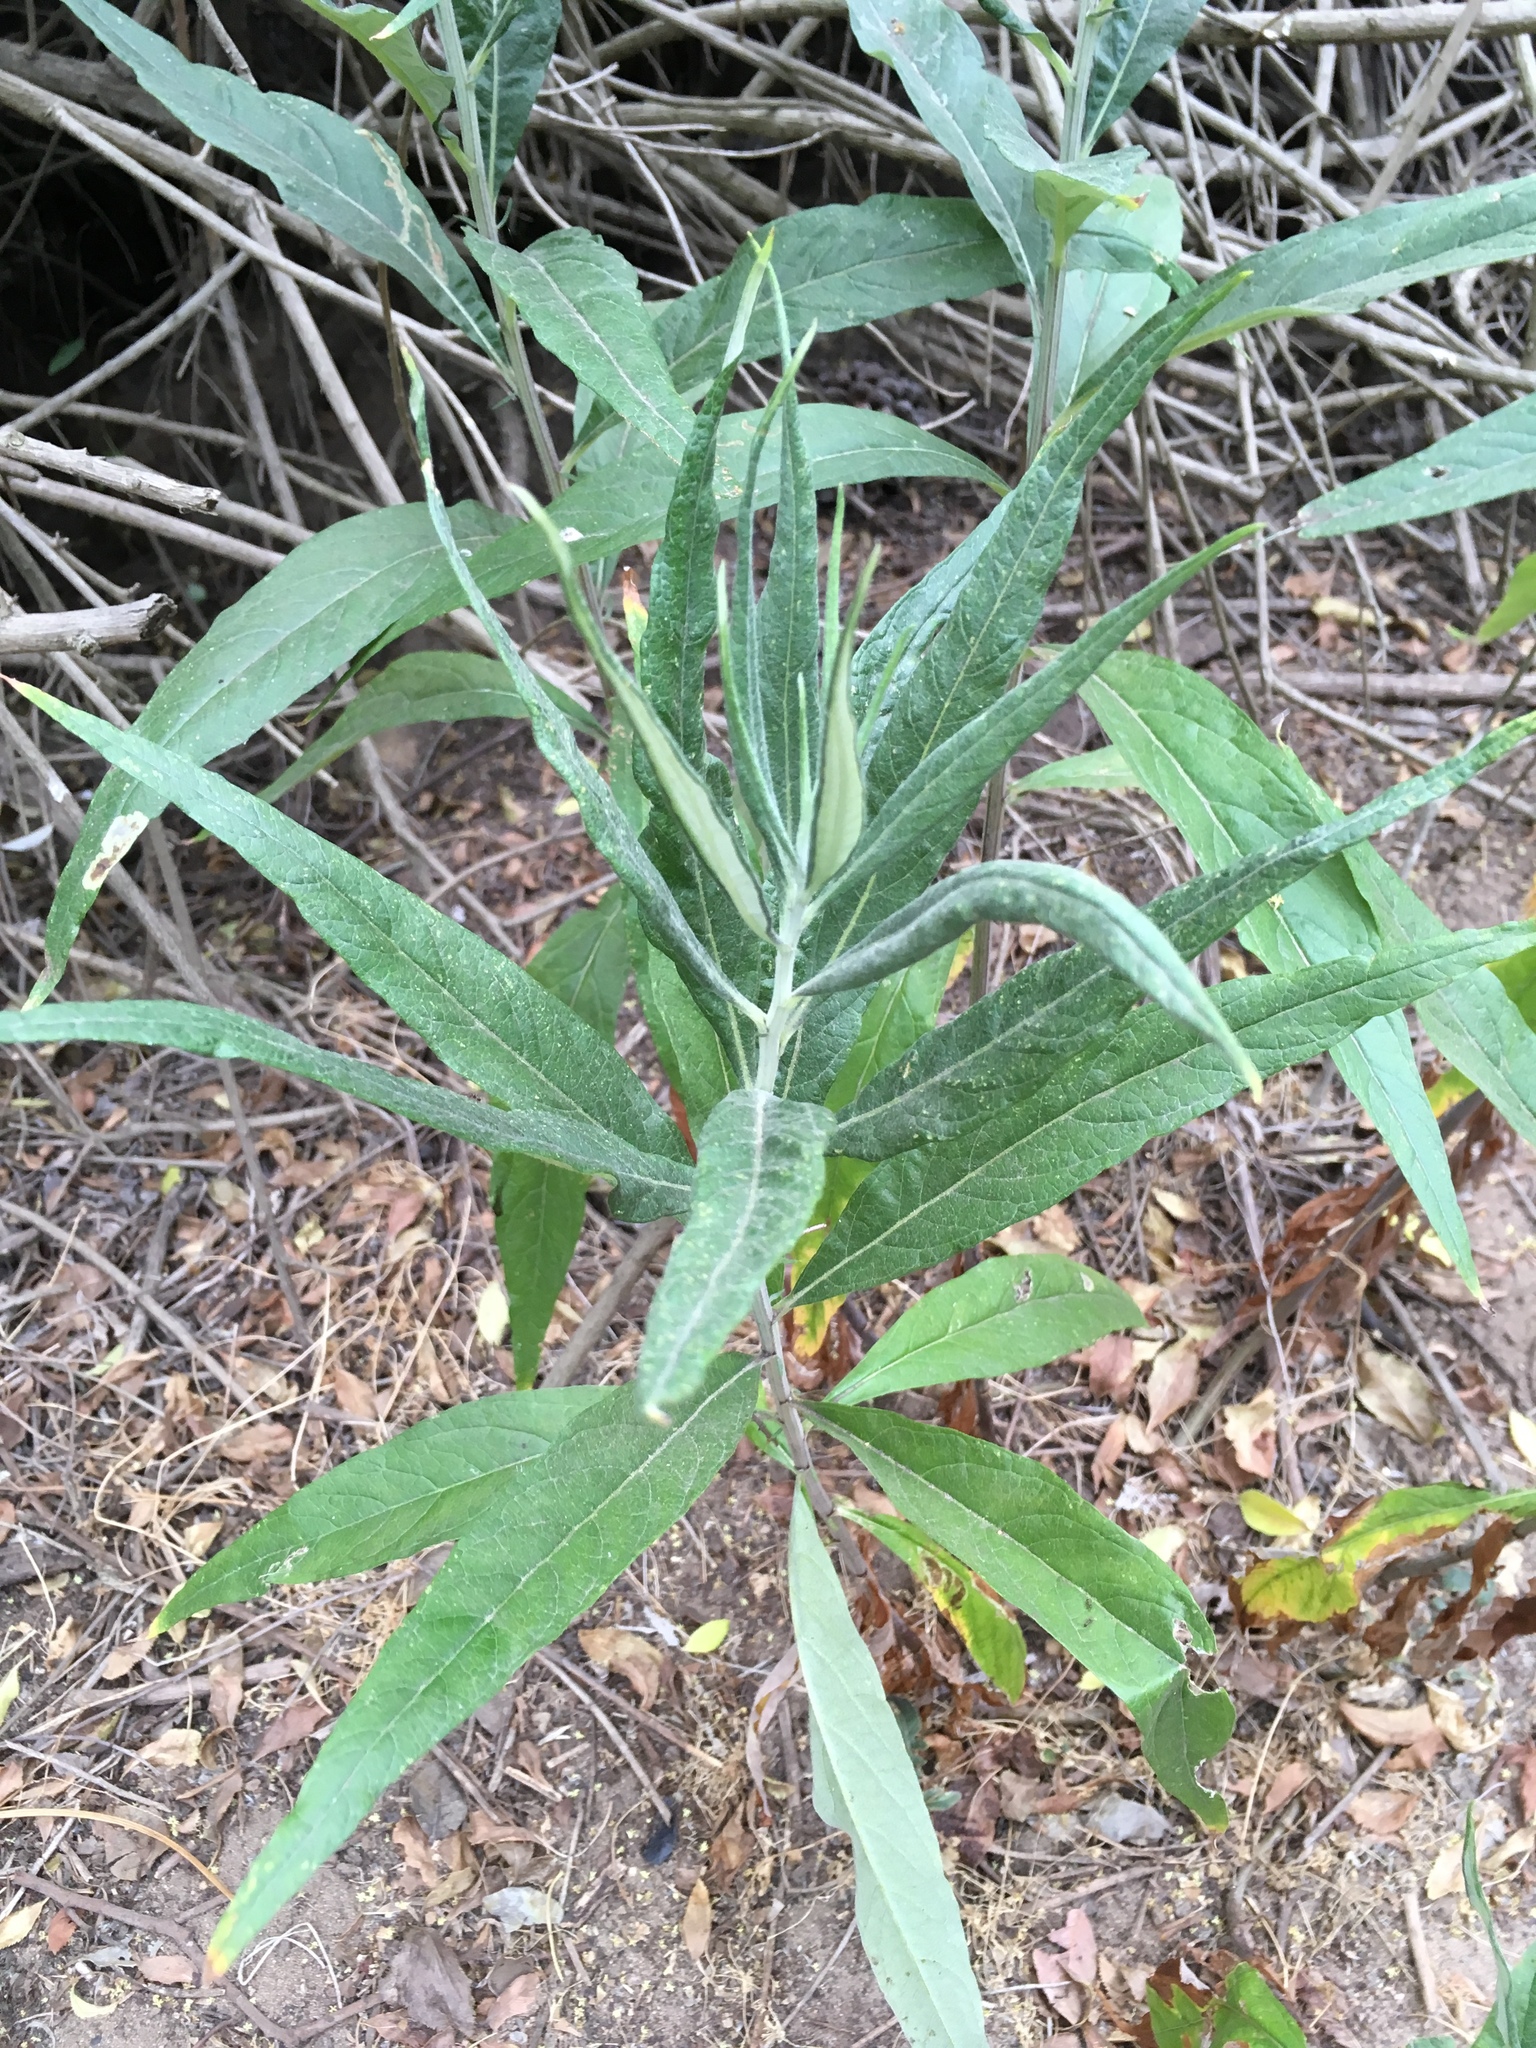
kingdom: Plantae
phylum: Tracheophyta
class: Magnoliopsida
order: Asterales
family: Asteraceae
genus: Artemisia
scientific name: Artemisia douglasiana
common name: Northwest mugwort
